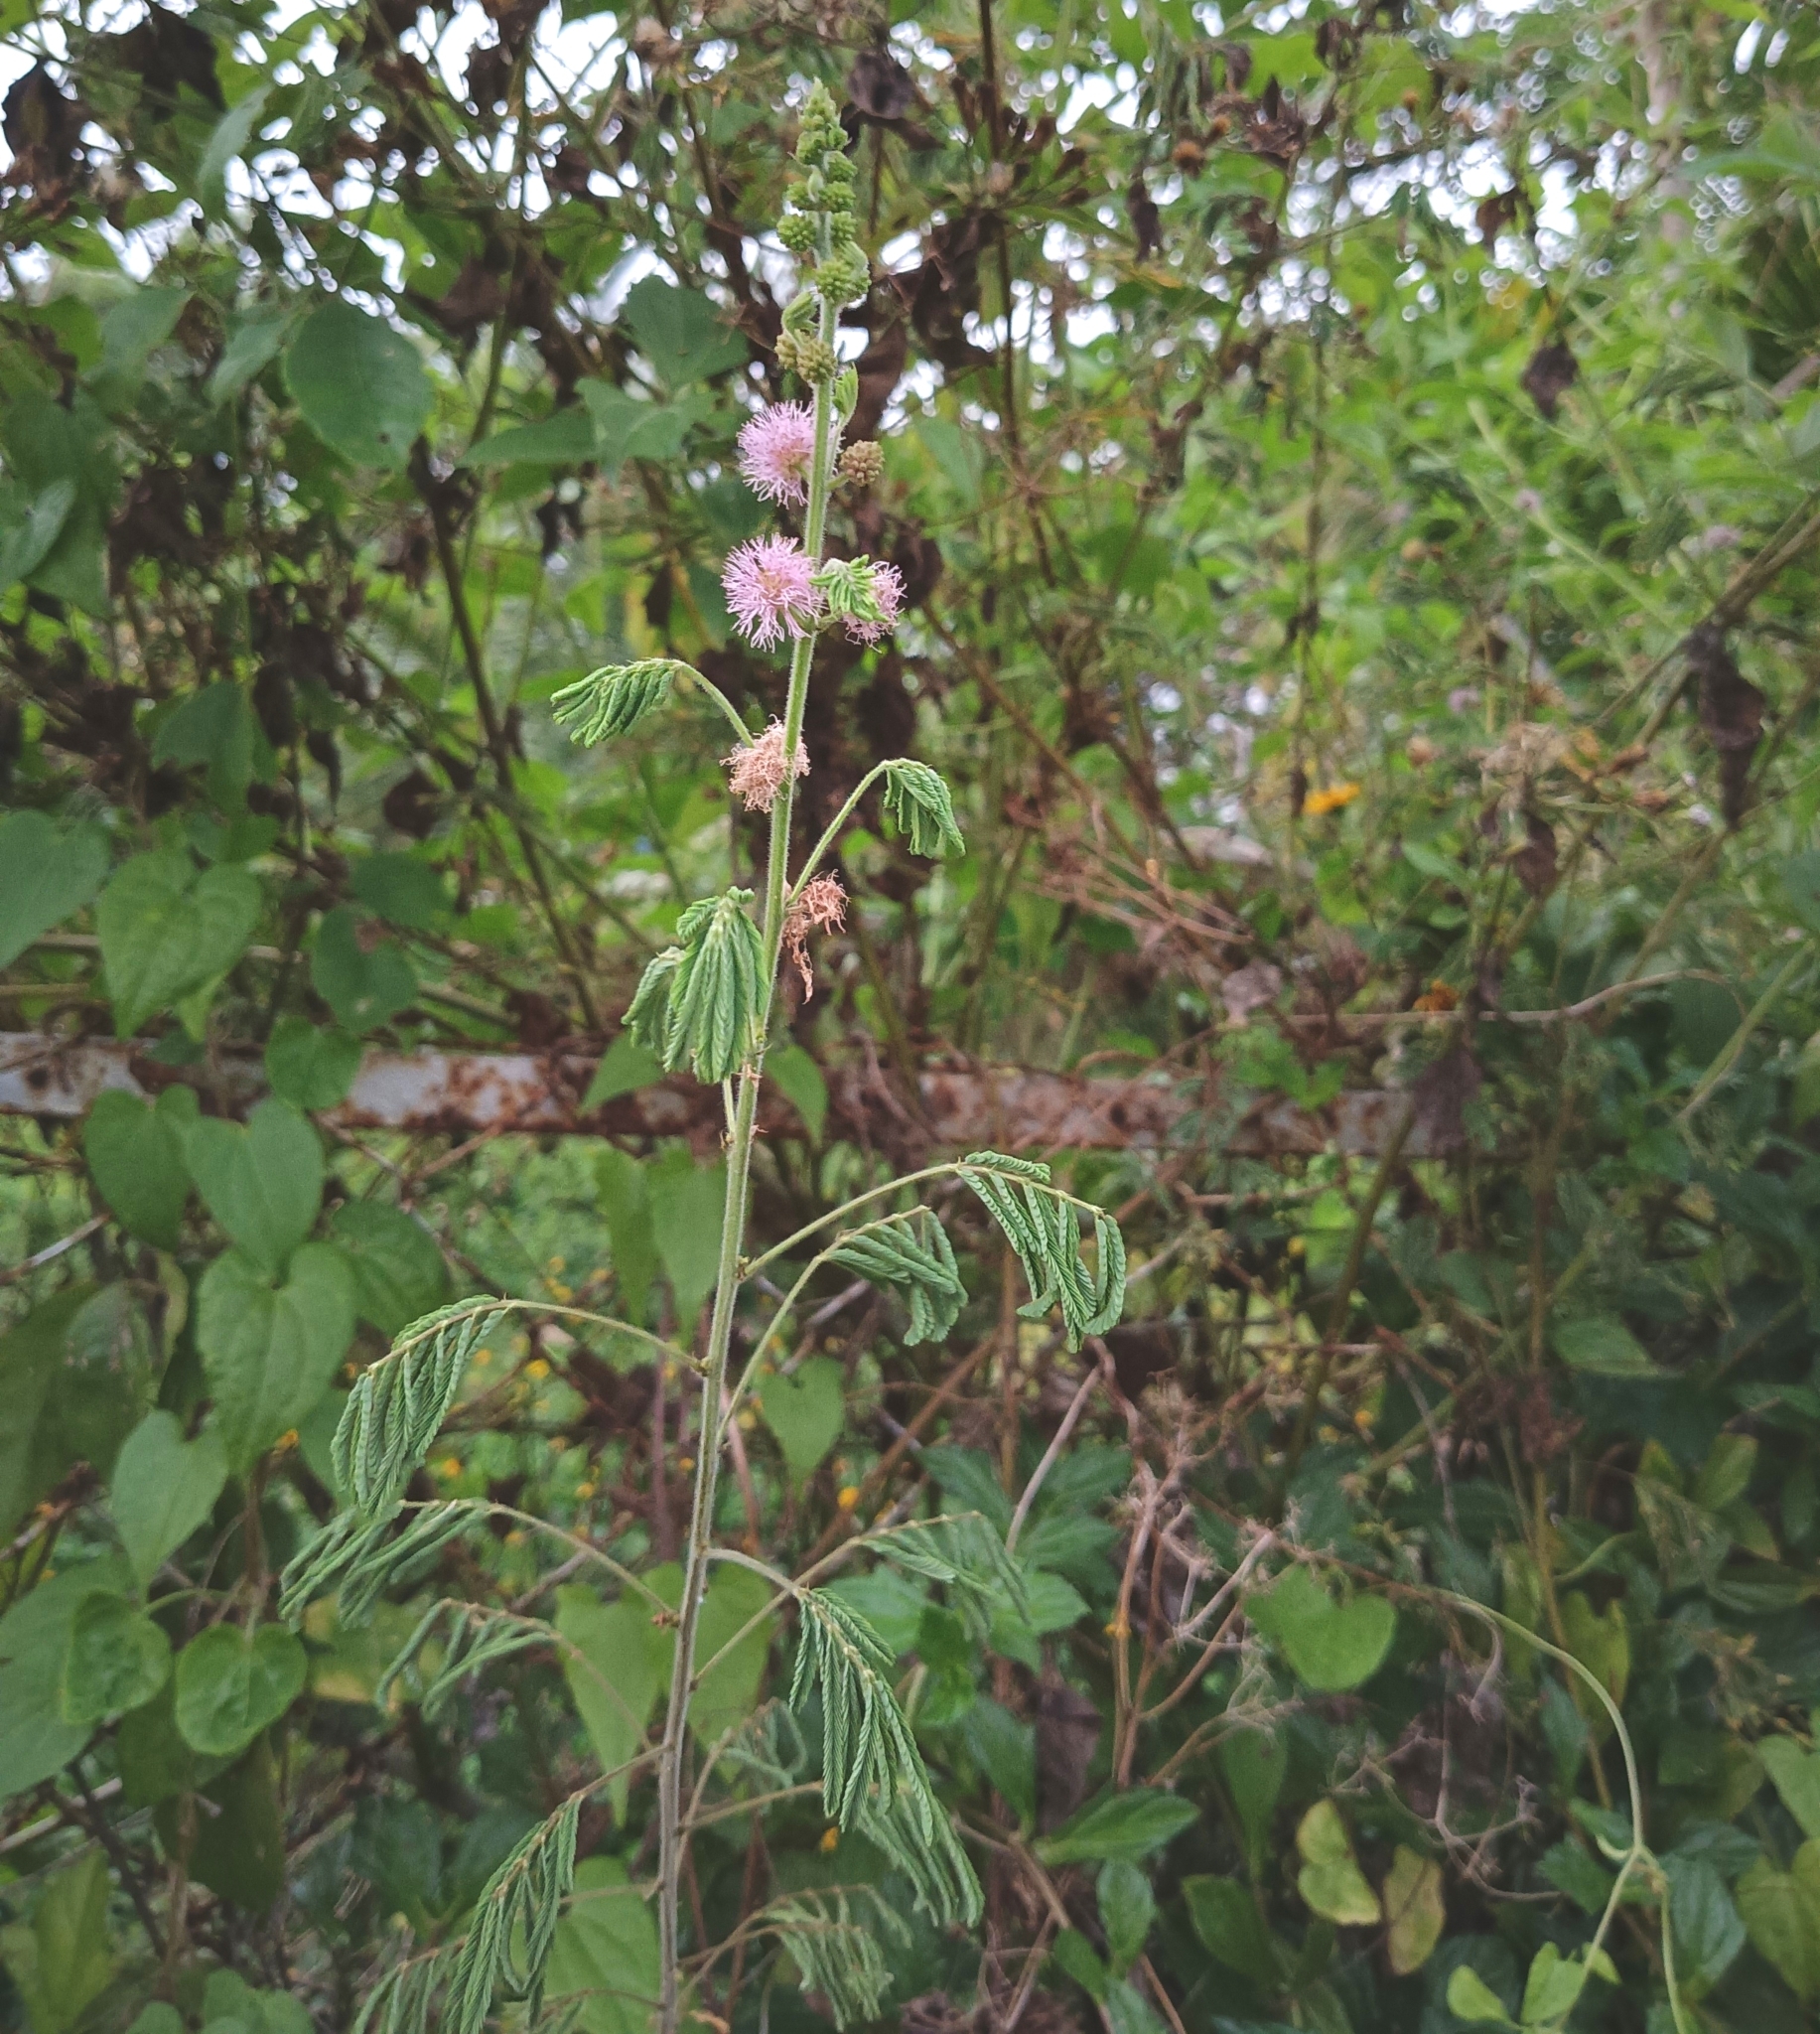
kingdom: Plantae
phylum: Tracheophyta
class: Magnoliopsida
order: Fabales
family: Fabaceae
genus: Mimosa
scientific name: Mimosa diplotricha
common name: Giant sensitive-plant
